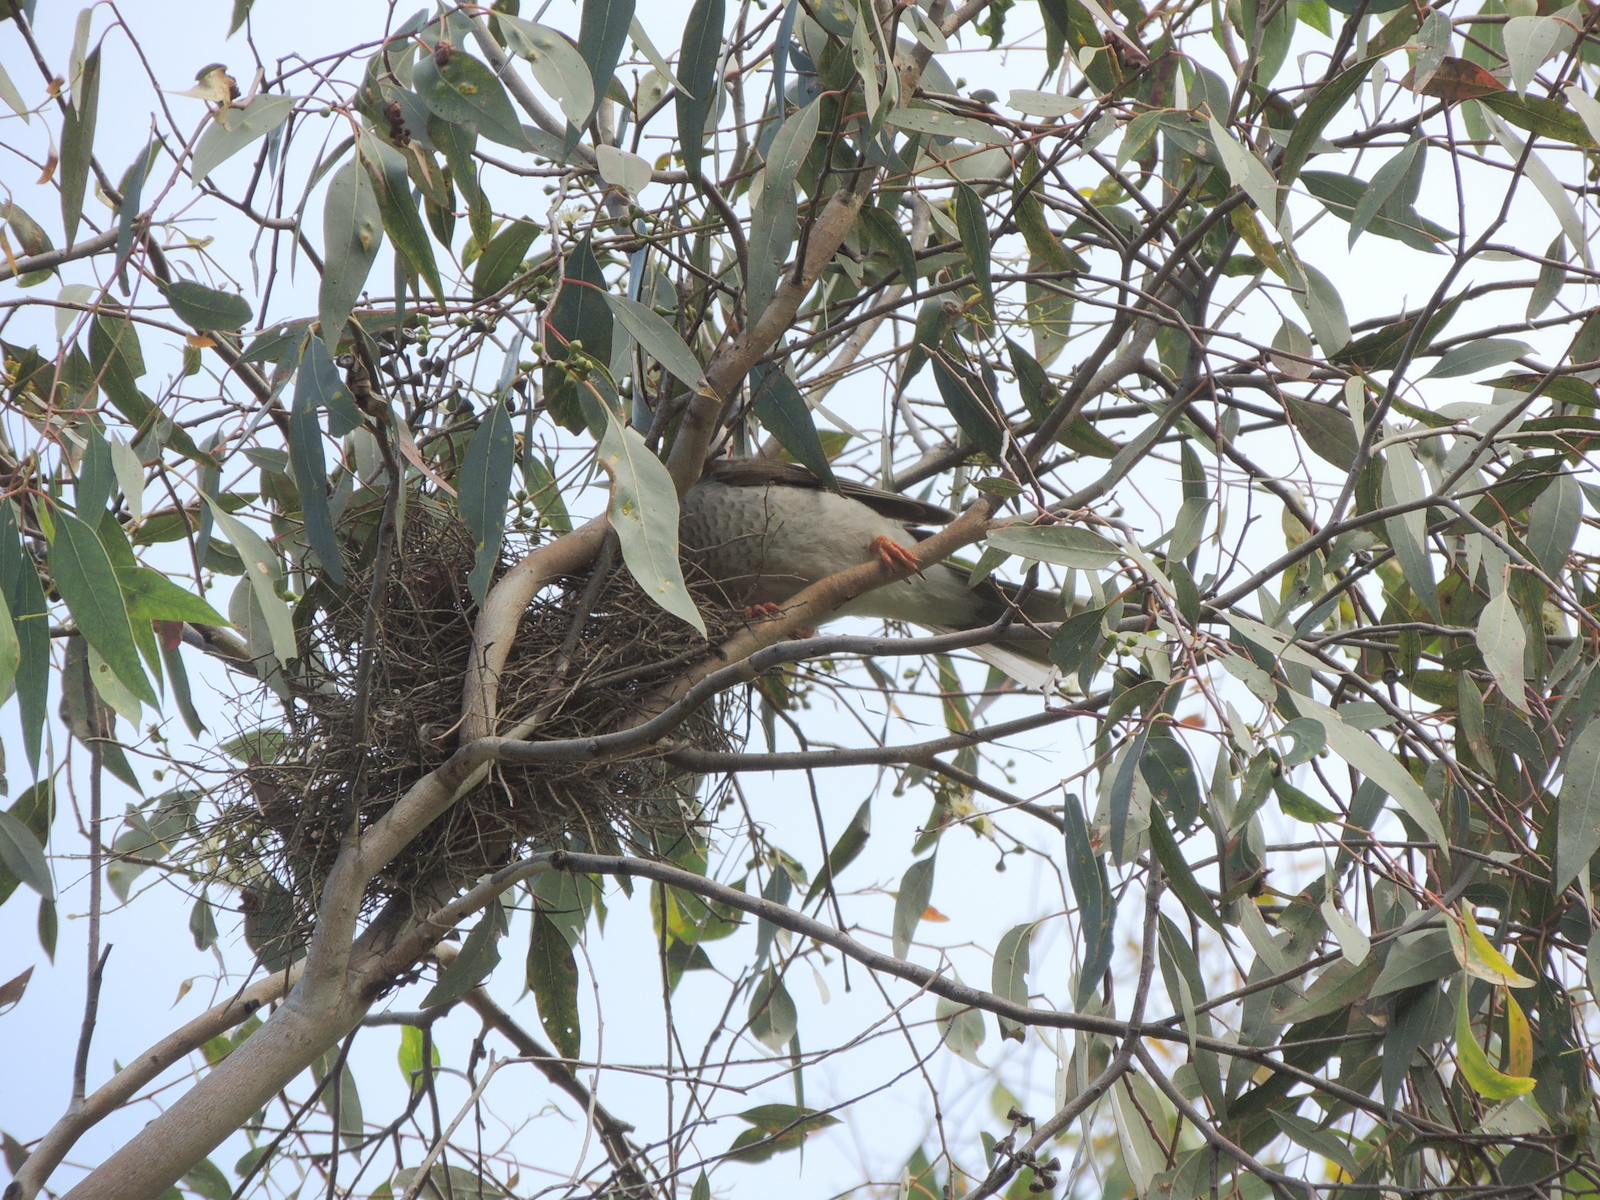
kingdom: Animalia
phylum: Chordata
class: Aves
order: Passeriformes
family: Meliphagidae
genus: Manorina
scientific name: Manorina melanocephala
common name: Noisy miner
